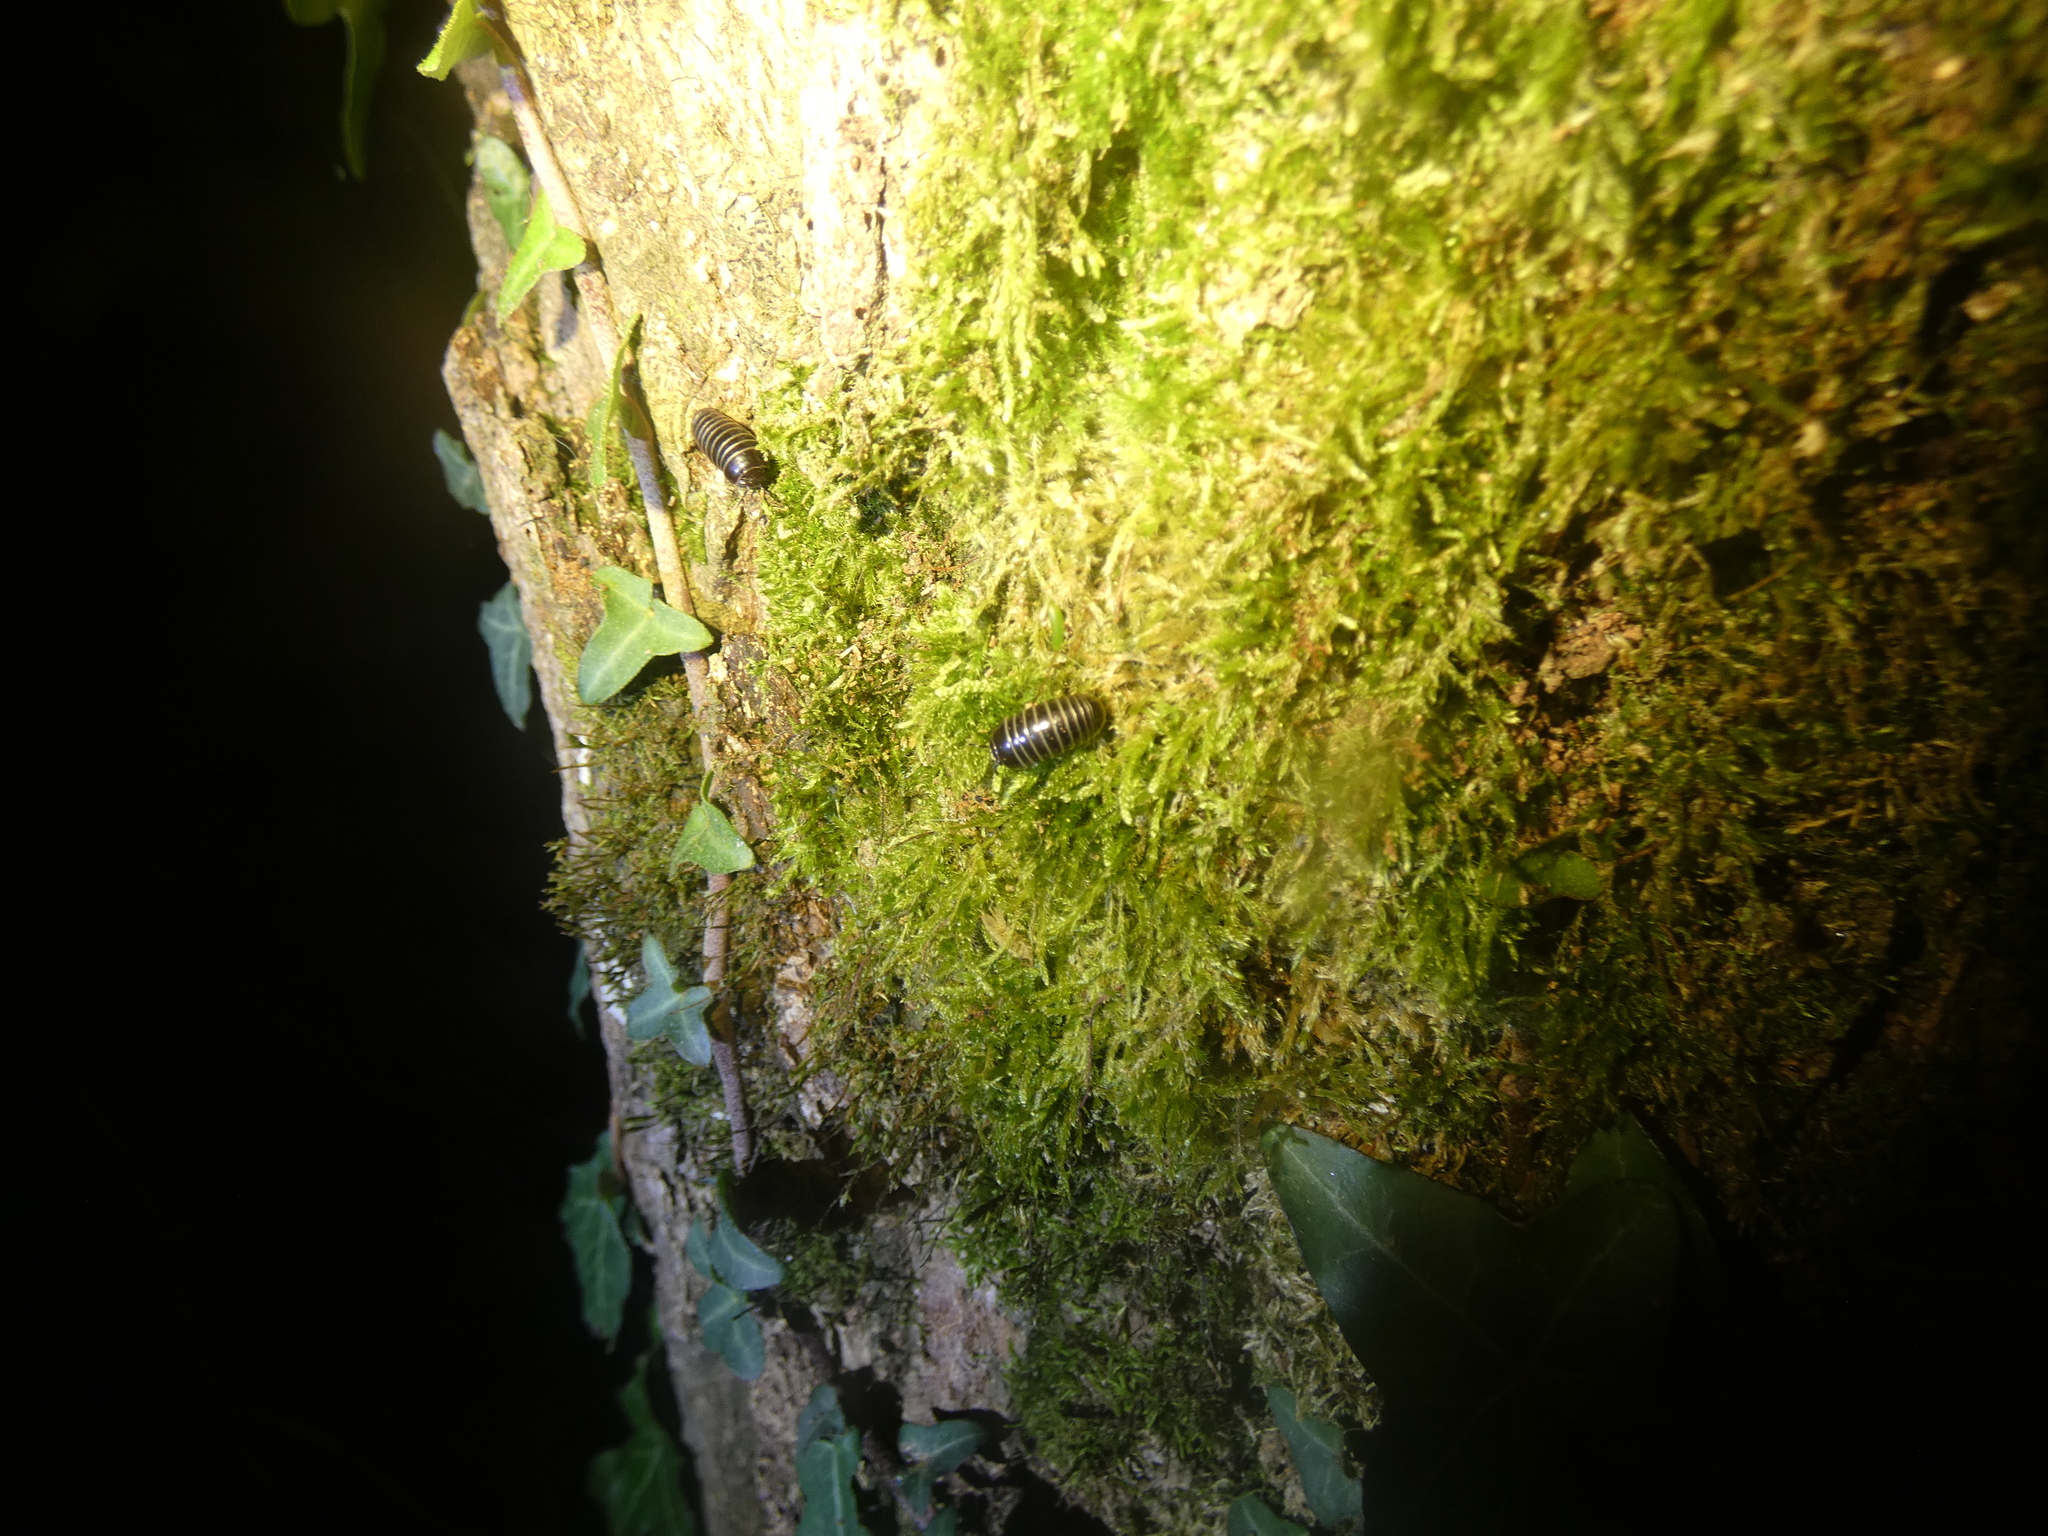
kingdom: Animalia
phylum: Arthropoda
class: Diplopoda
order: Glomerida
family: Glomeridae
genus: Glomeris
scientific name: Glomeris marginata
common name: Bordered pill millipede
